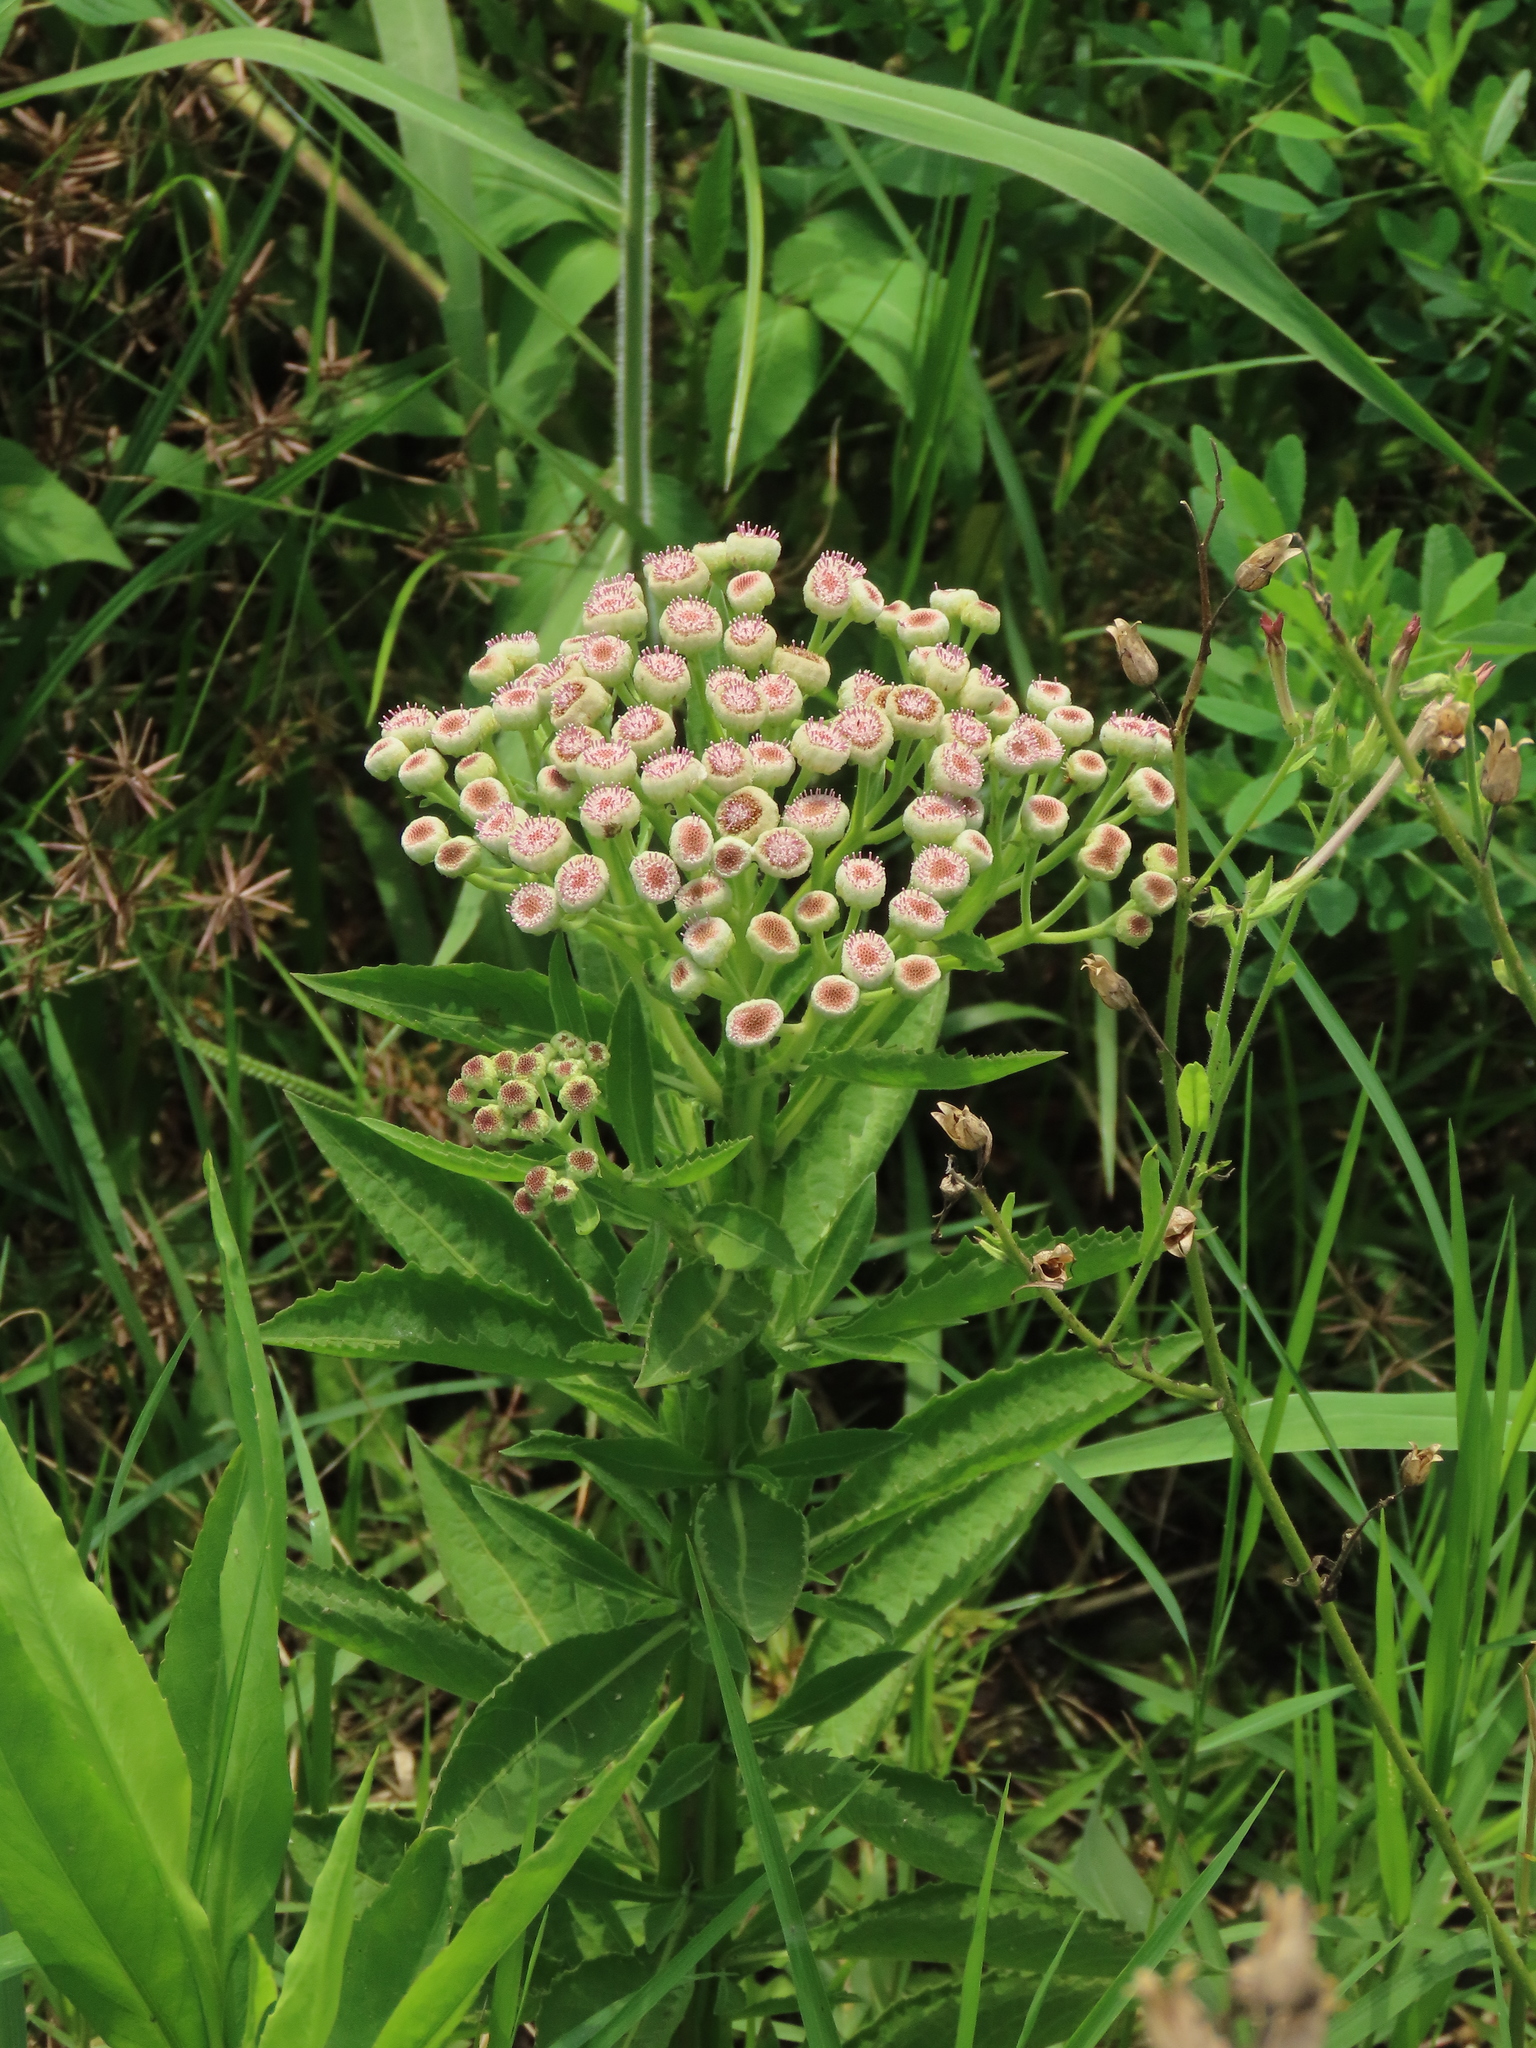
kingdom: Plantae
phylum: Tracheophyta
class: Magnoliopsida
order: Asterales
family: Asteraceae
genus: Pluchea
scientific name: Pluchea sagittalis
